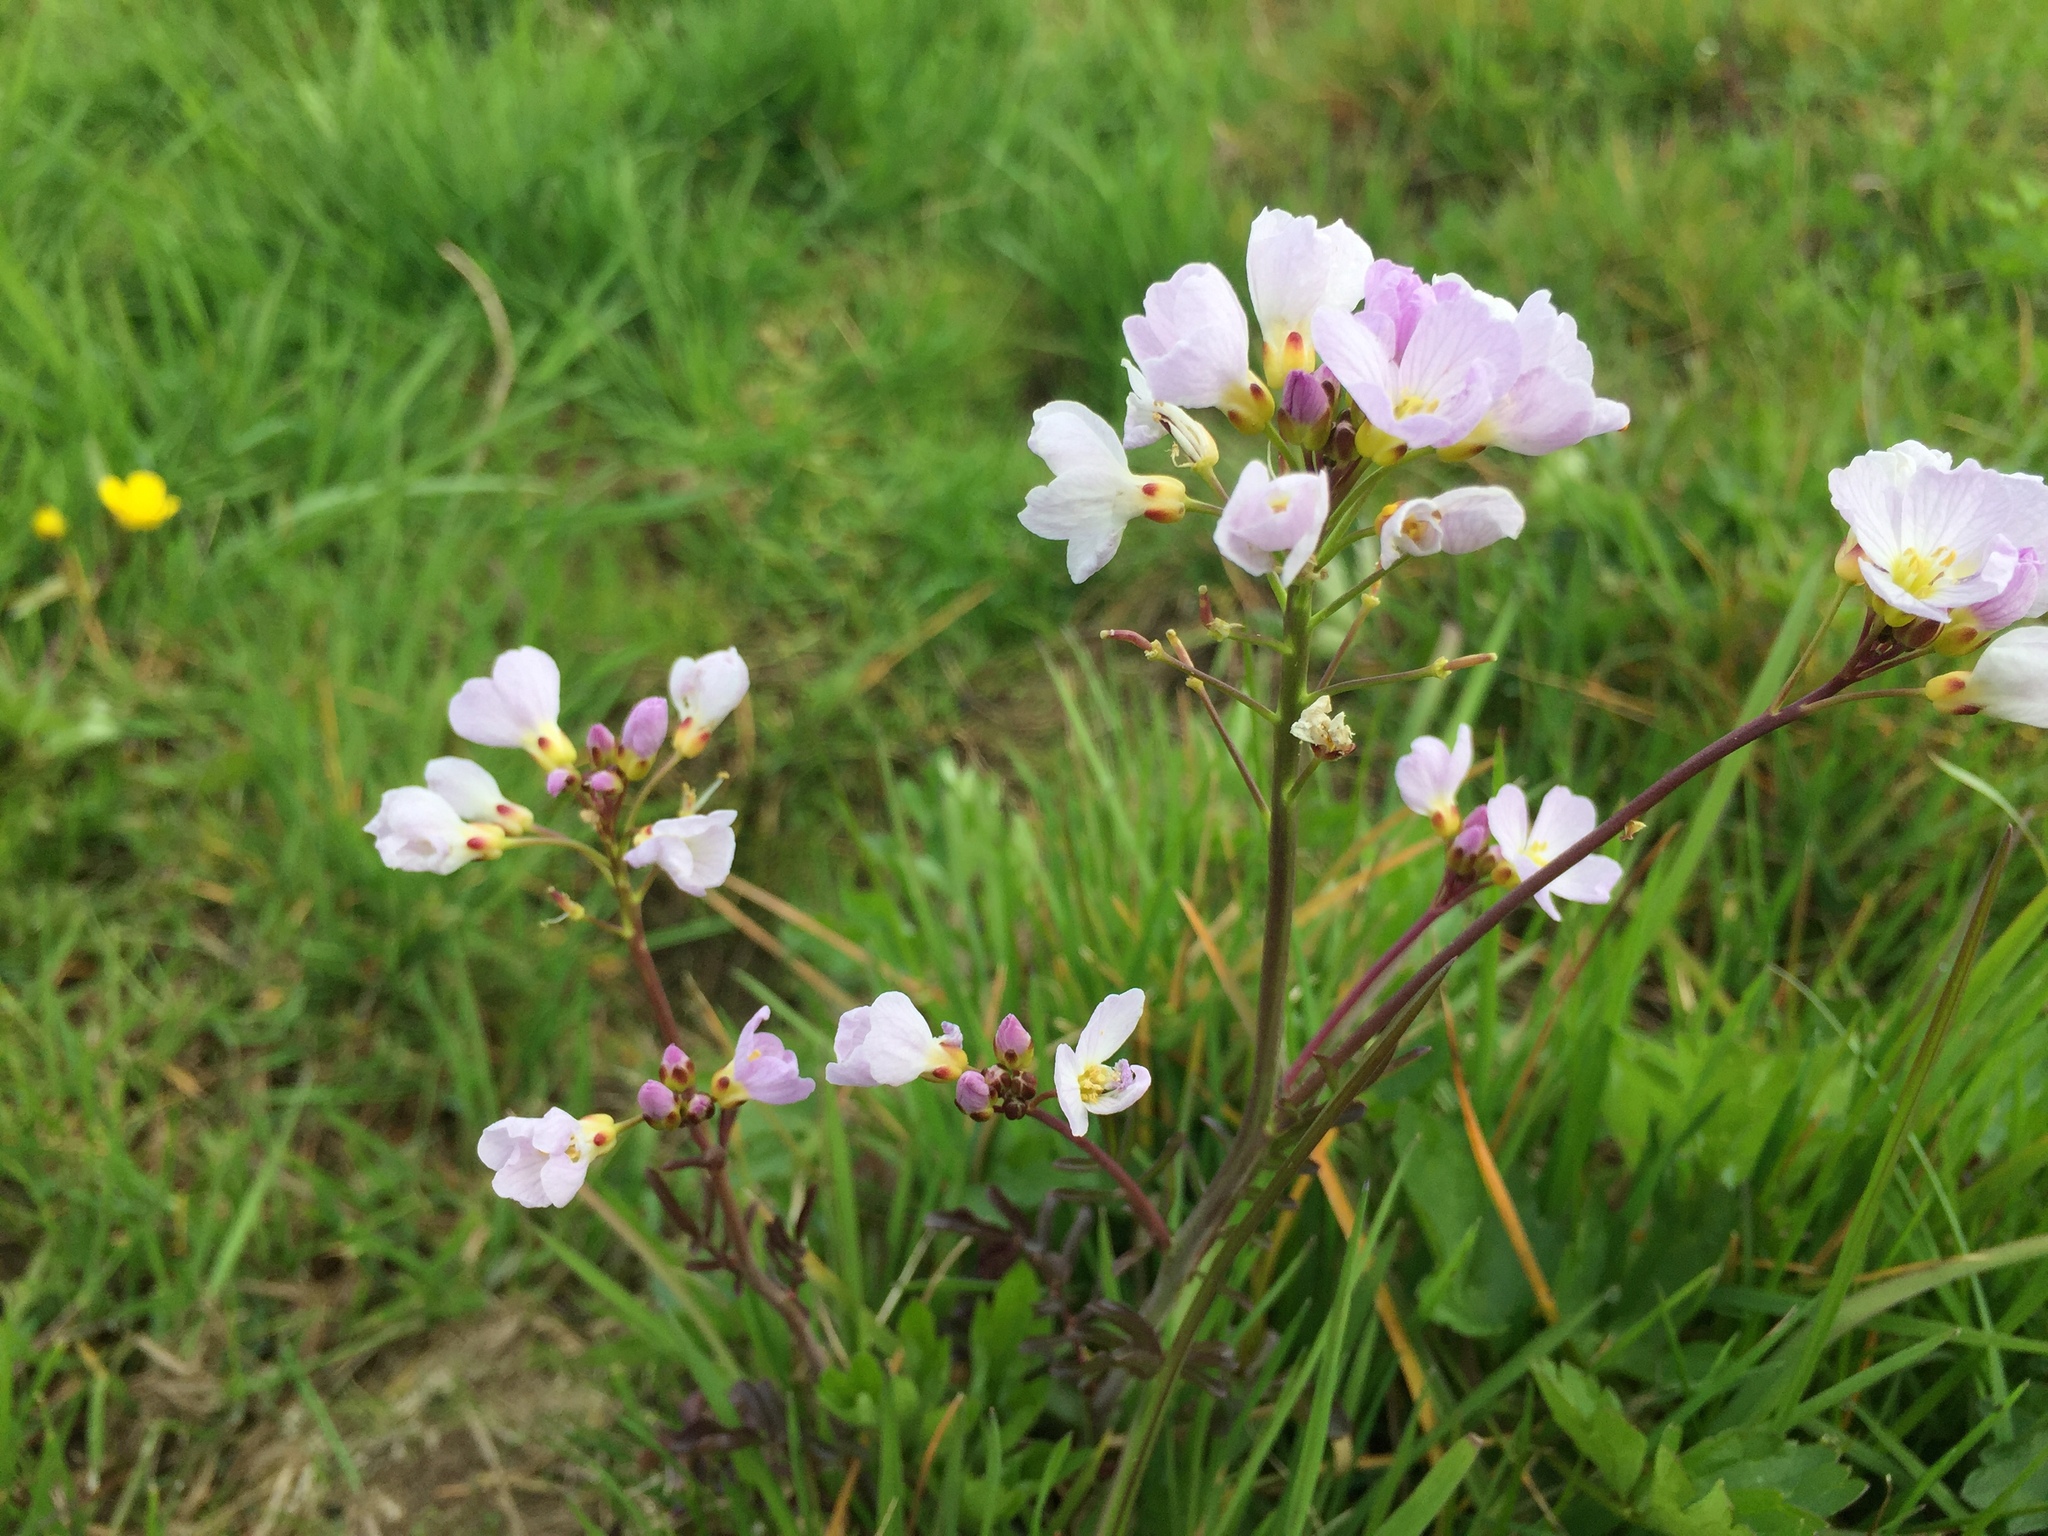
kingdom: Plantae
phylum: Tracheophyta
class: Magnoliopsida
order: Brassicales
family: Brassicaceae
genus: Cardamine
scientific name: Cardamine pratensis
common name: Cuckoo flower
